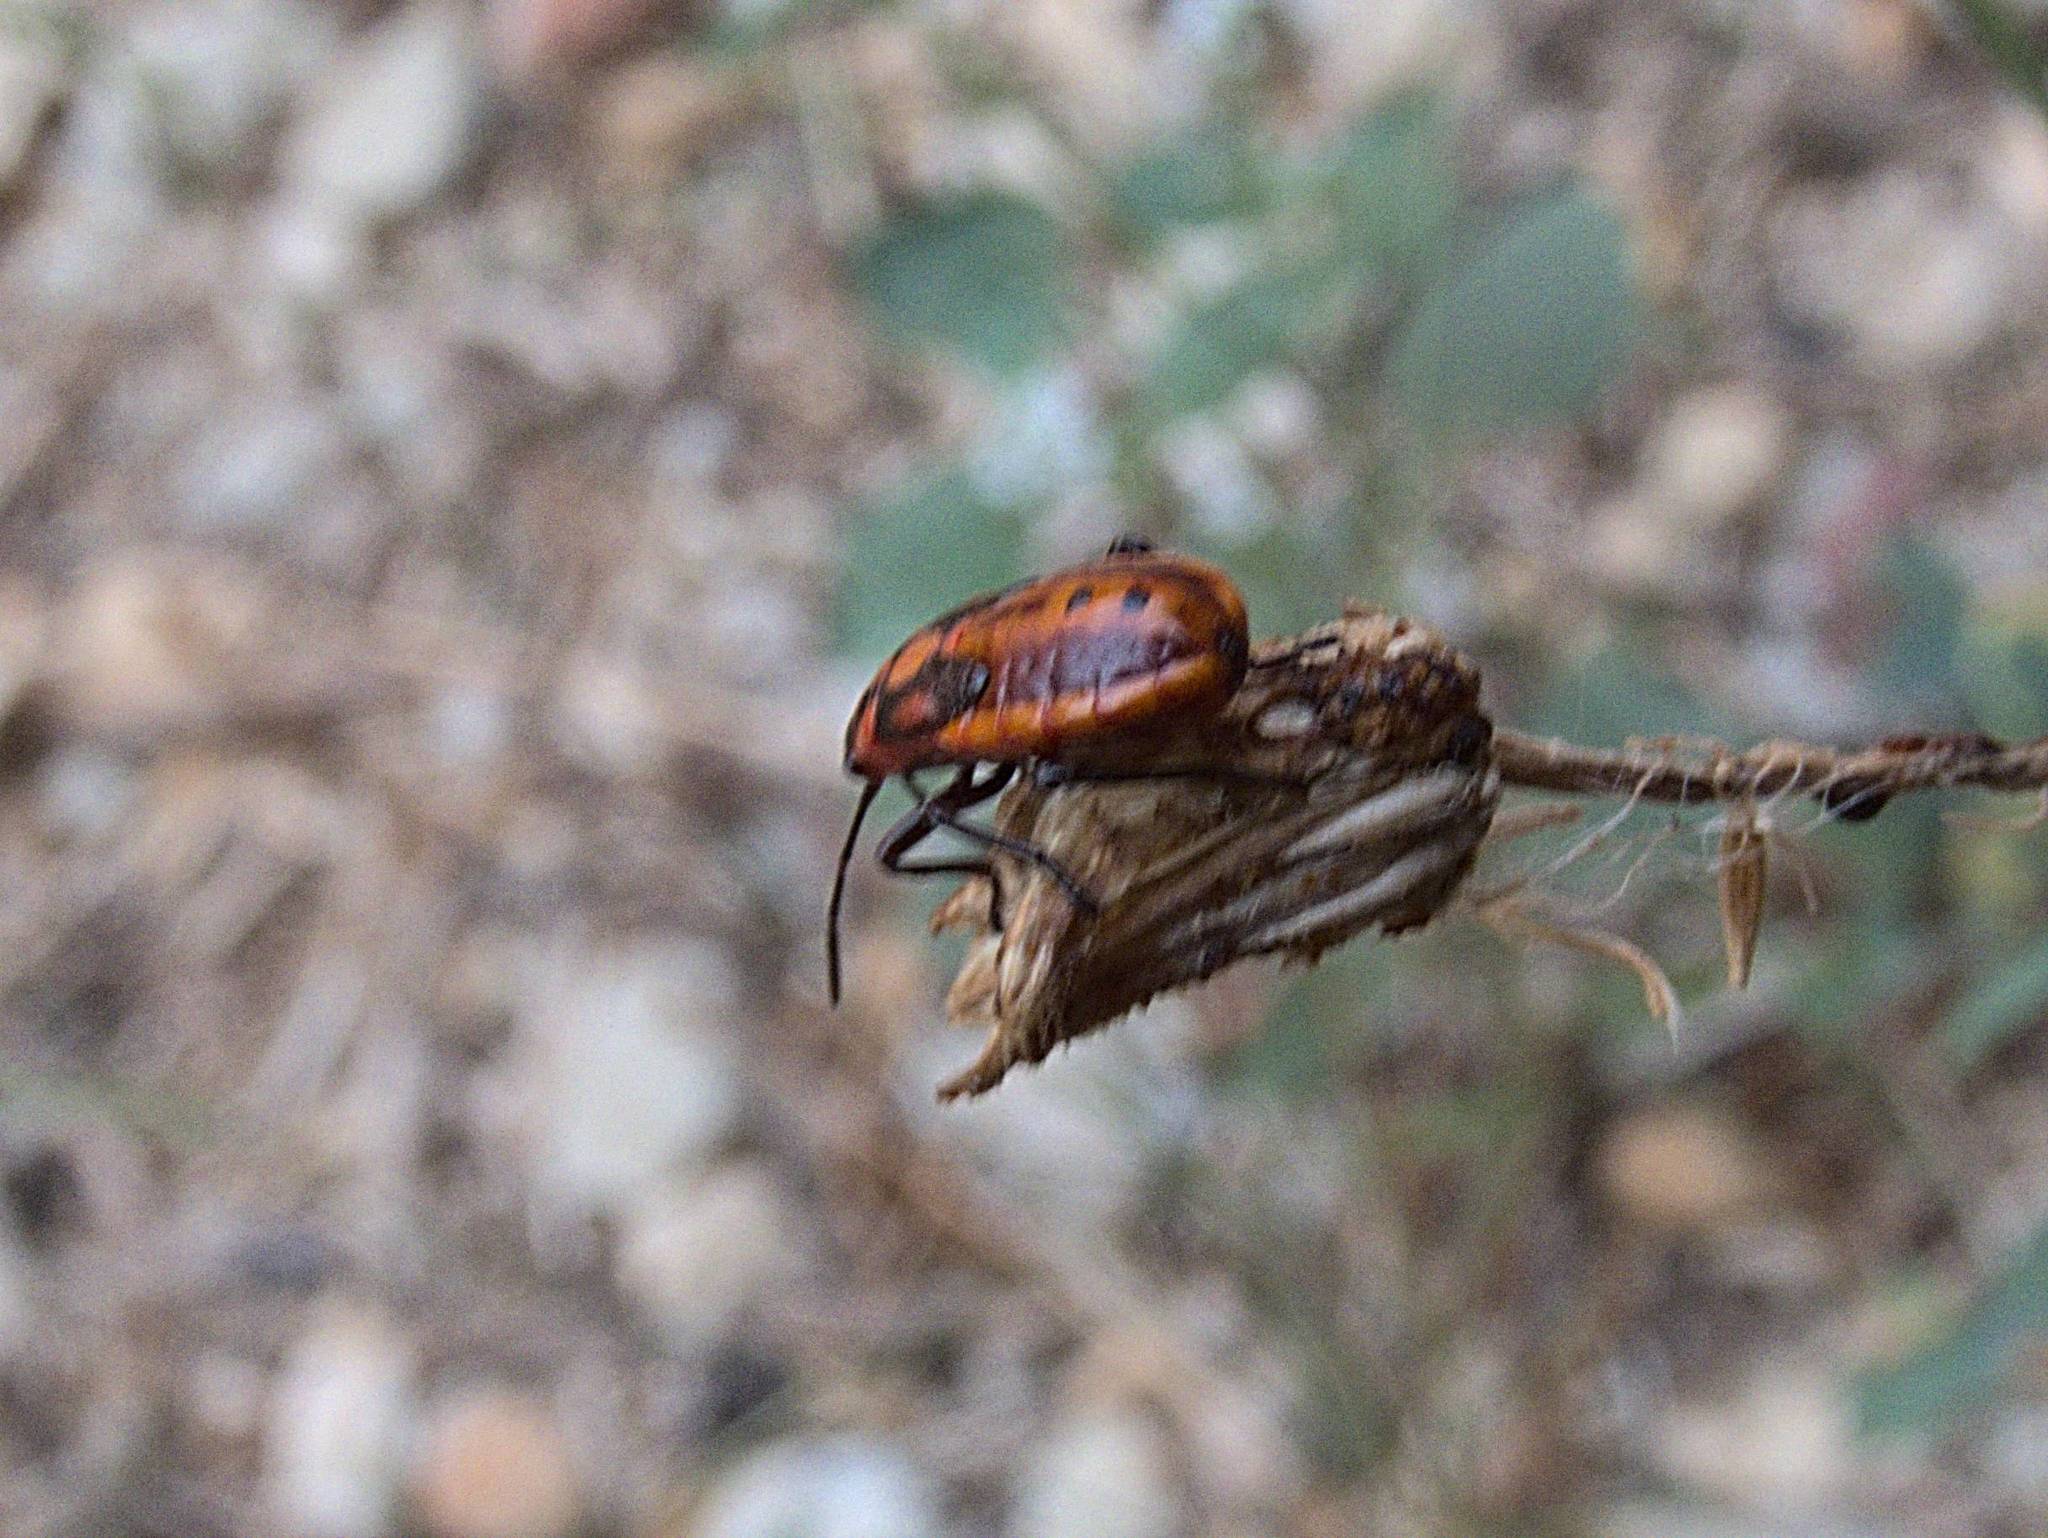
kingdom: Animalia
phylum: Arthropoda
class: Insecta
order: Hemiptera
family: Lygaeidae
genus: Spilostethus
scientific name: Spilostethus pandurus
